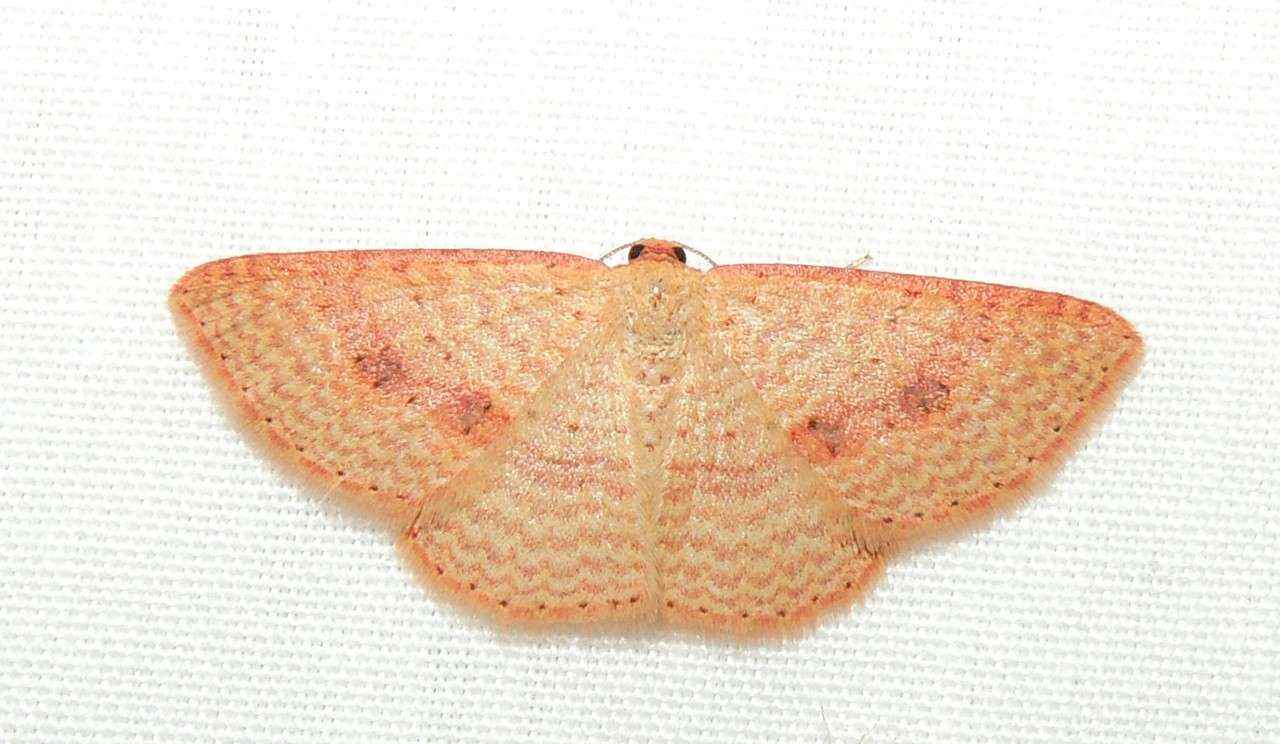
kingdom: Animalia
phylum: Arthropoda
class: Insecta
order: Lepidoptera
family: Geometridae
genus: Epicyme
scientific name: Epicyme rubropunctaria
